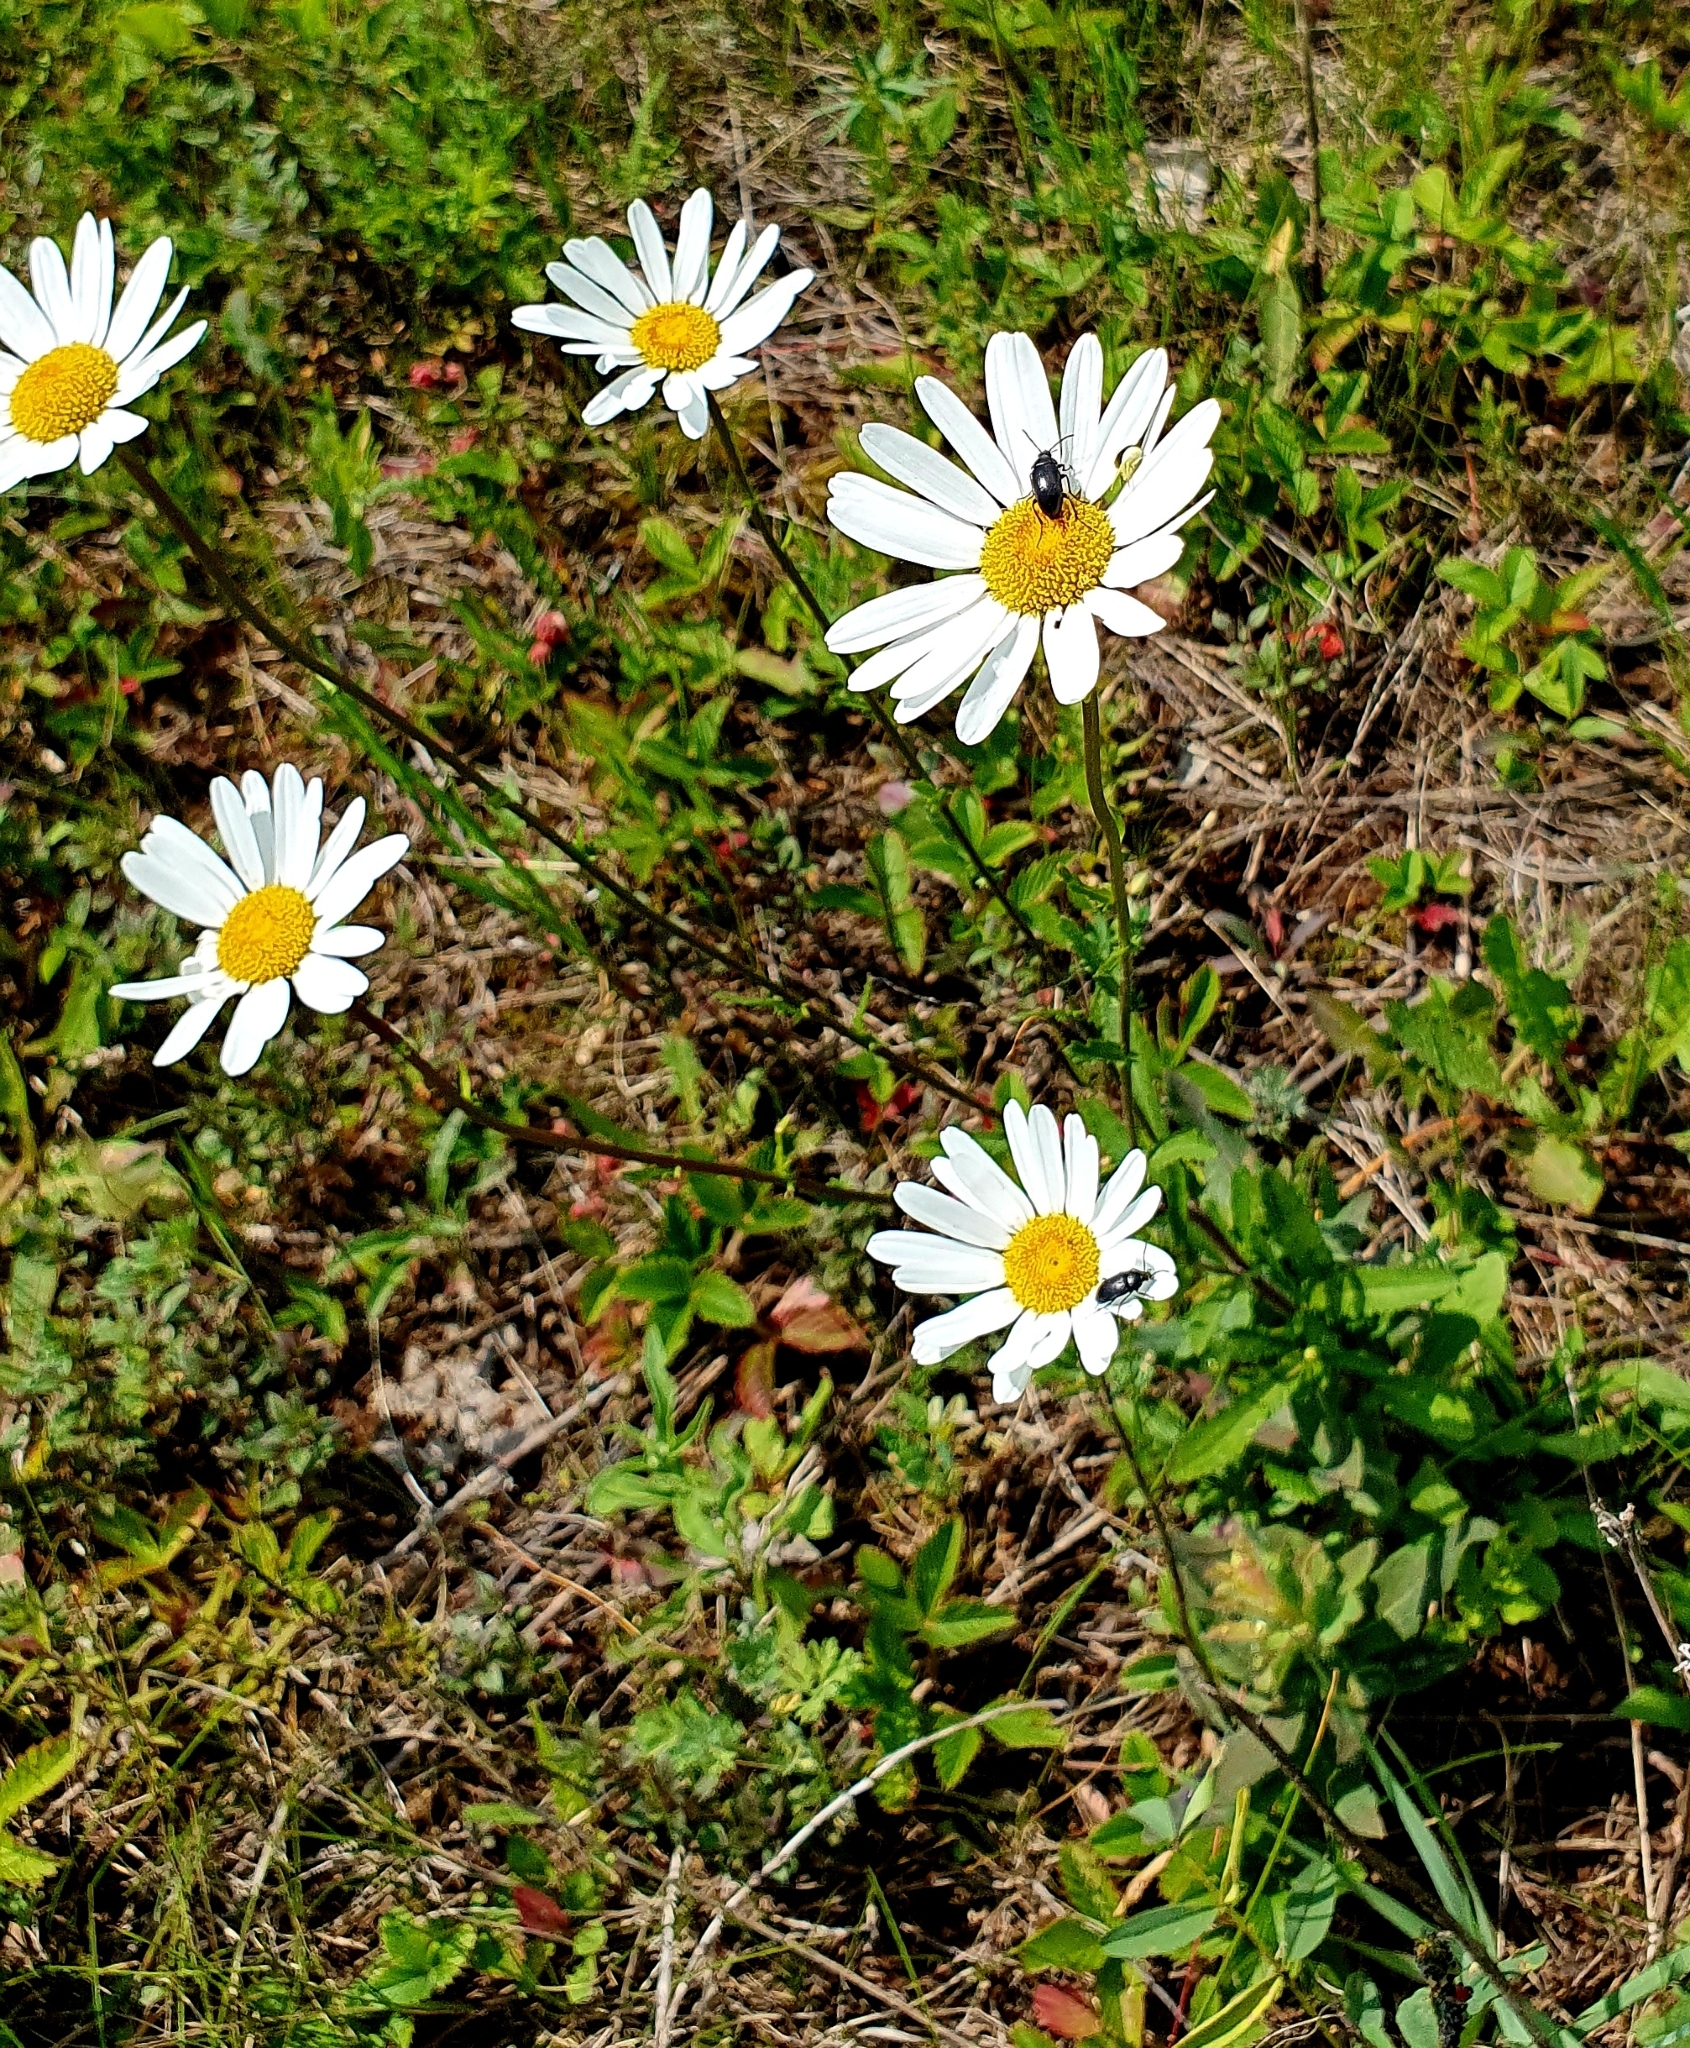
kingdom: Plantae
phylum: Tracheophyta
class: Magnoliopsida
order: Asterales
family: Asteraceae
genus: Leucanthemum
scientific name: Leucanthemum vulgare
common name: Oxeye daisy
